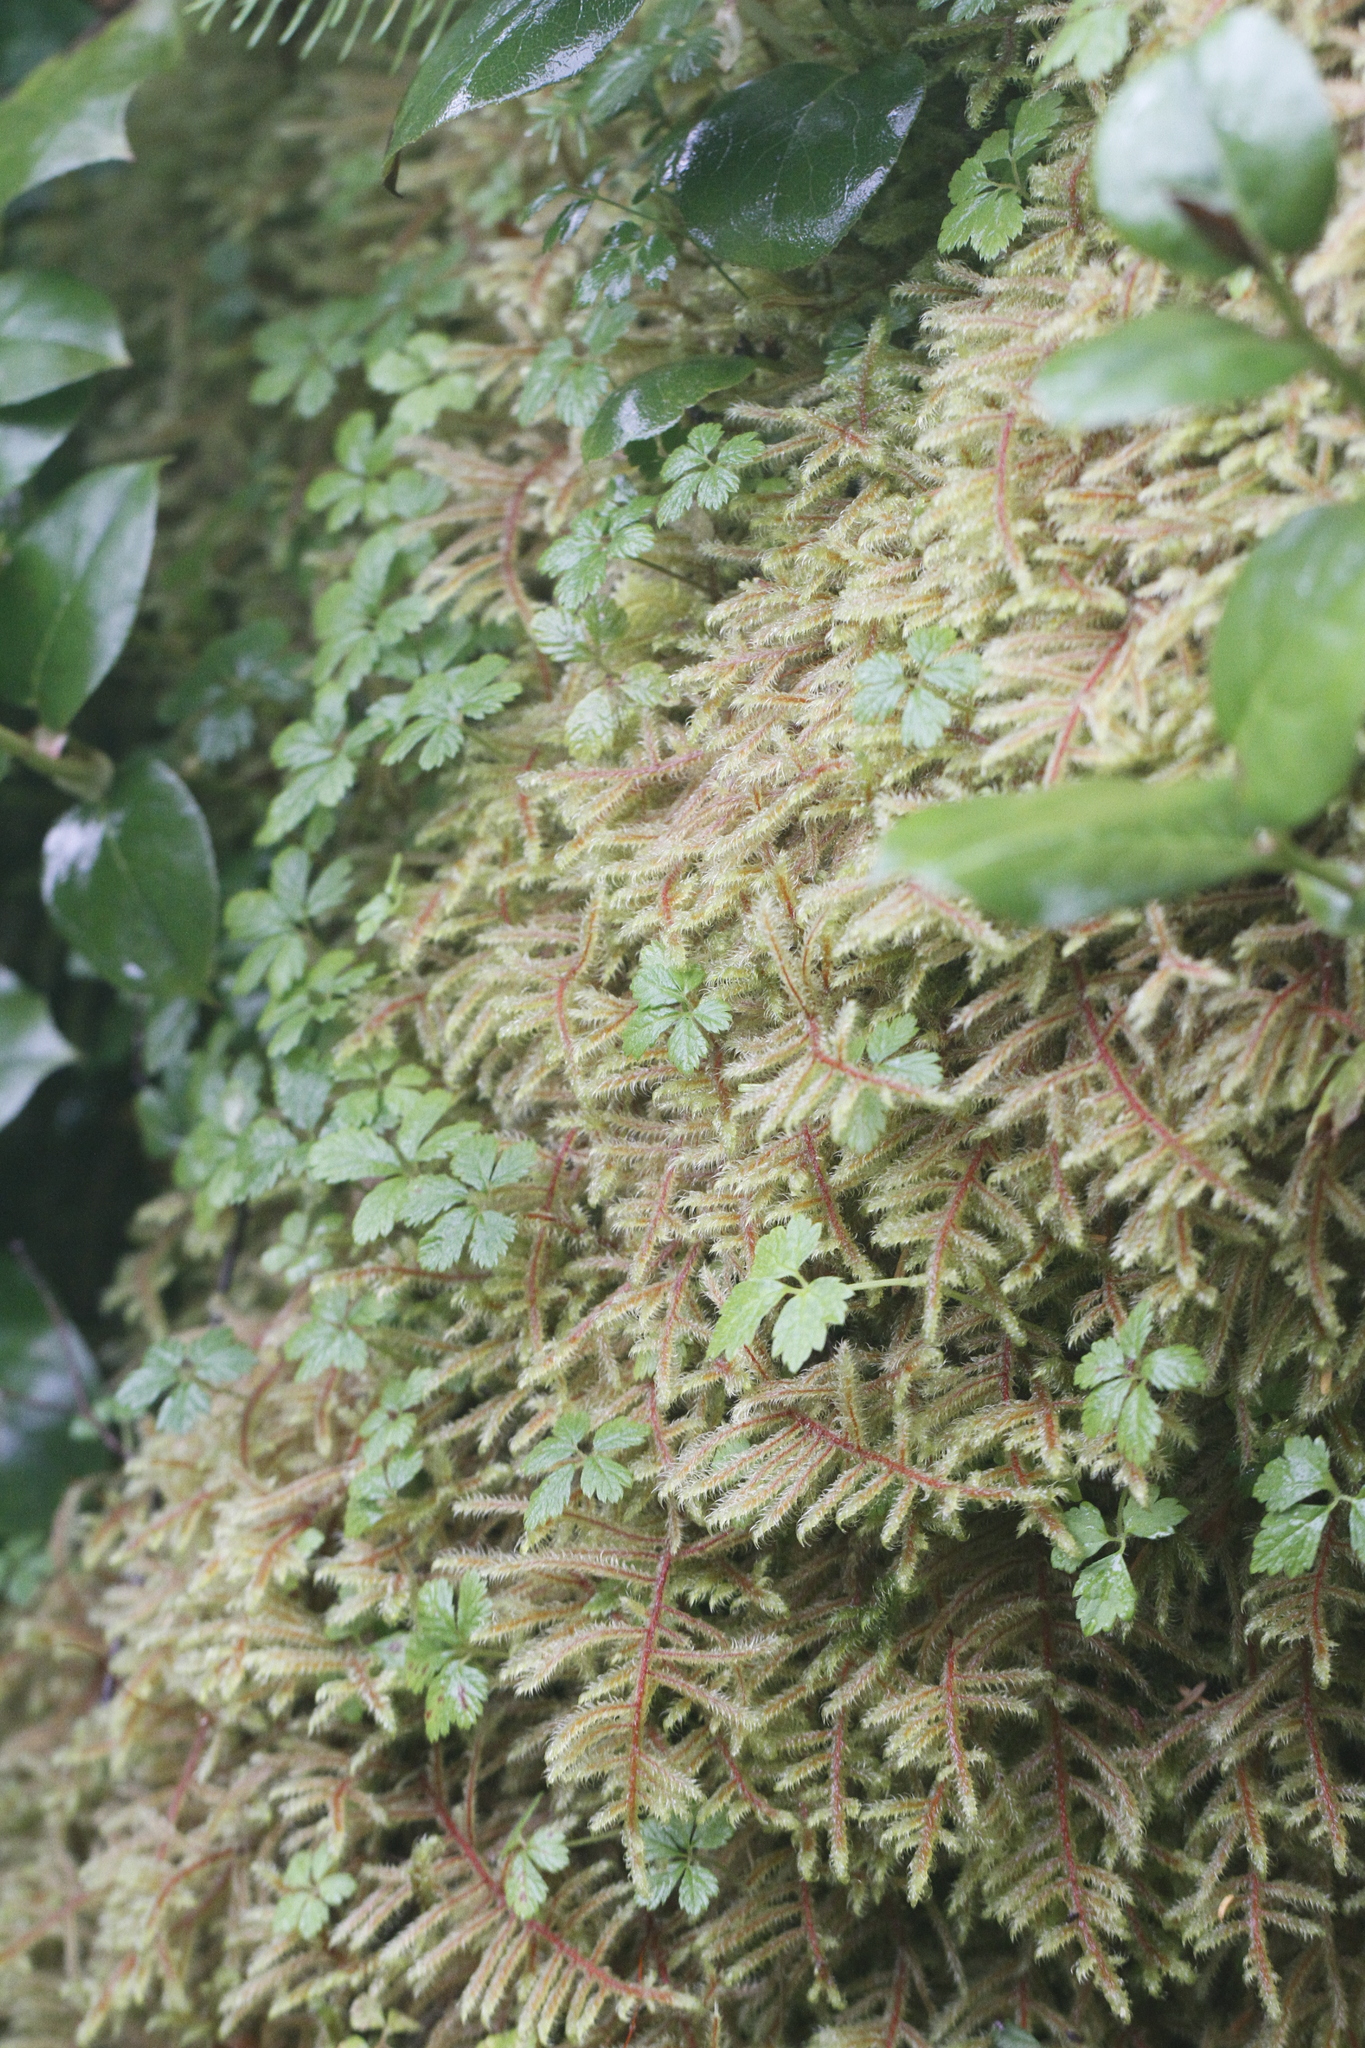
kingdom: Plantae
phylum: Tracheophyta
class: Magnoliopsida
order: Rosales
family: Rosaceae
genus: Rubus
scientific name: Rubus pedatus
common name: Creeping raspberry
